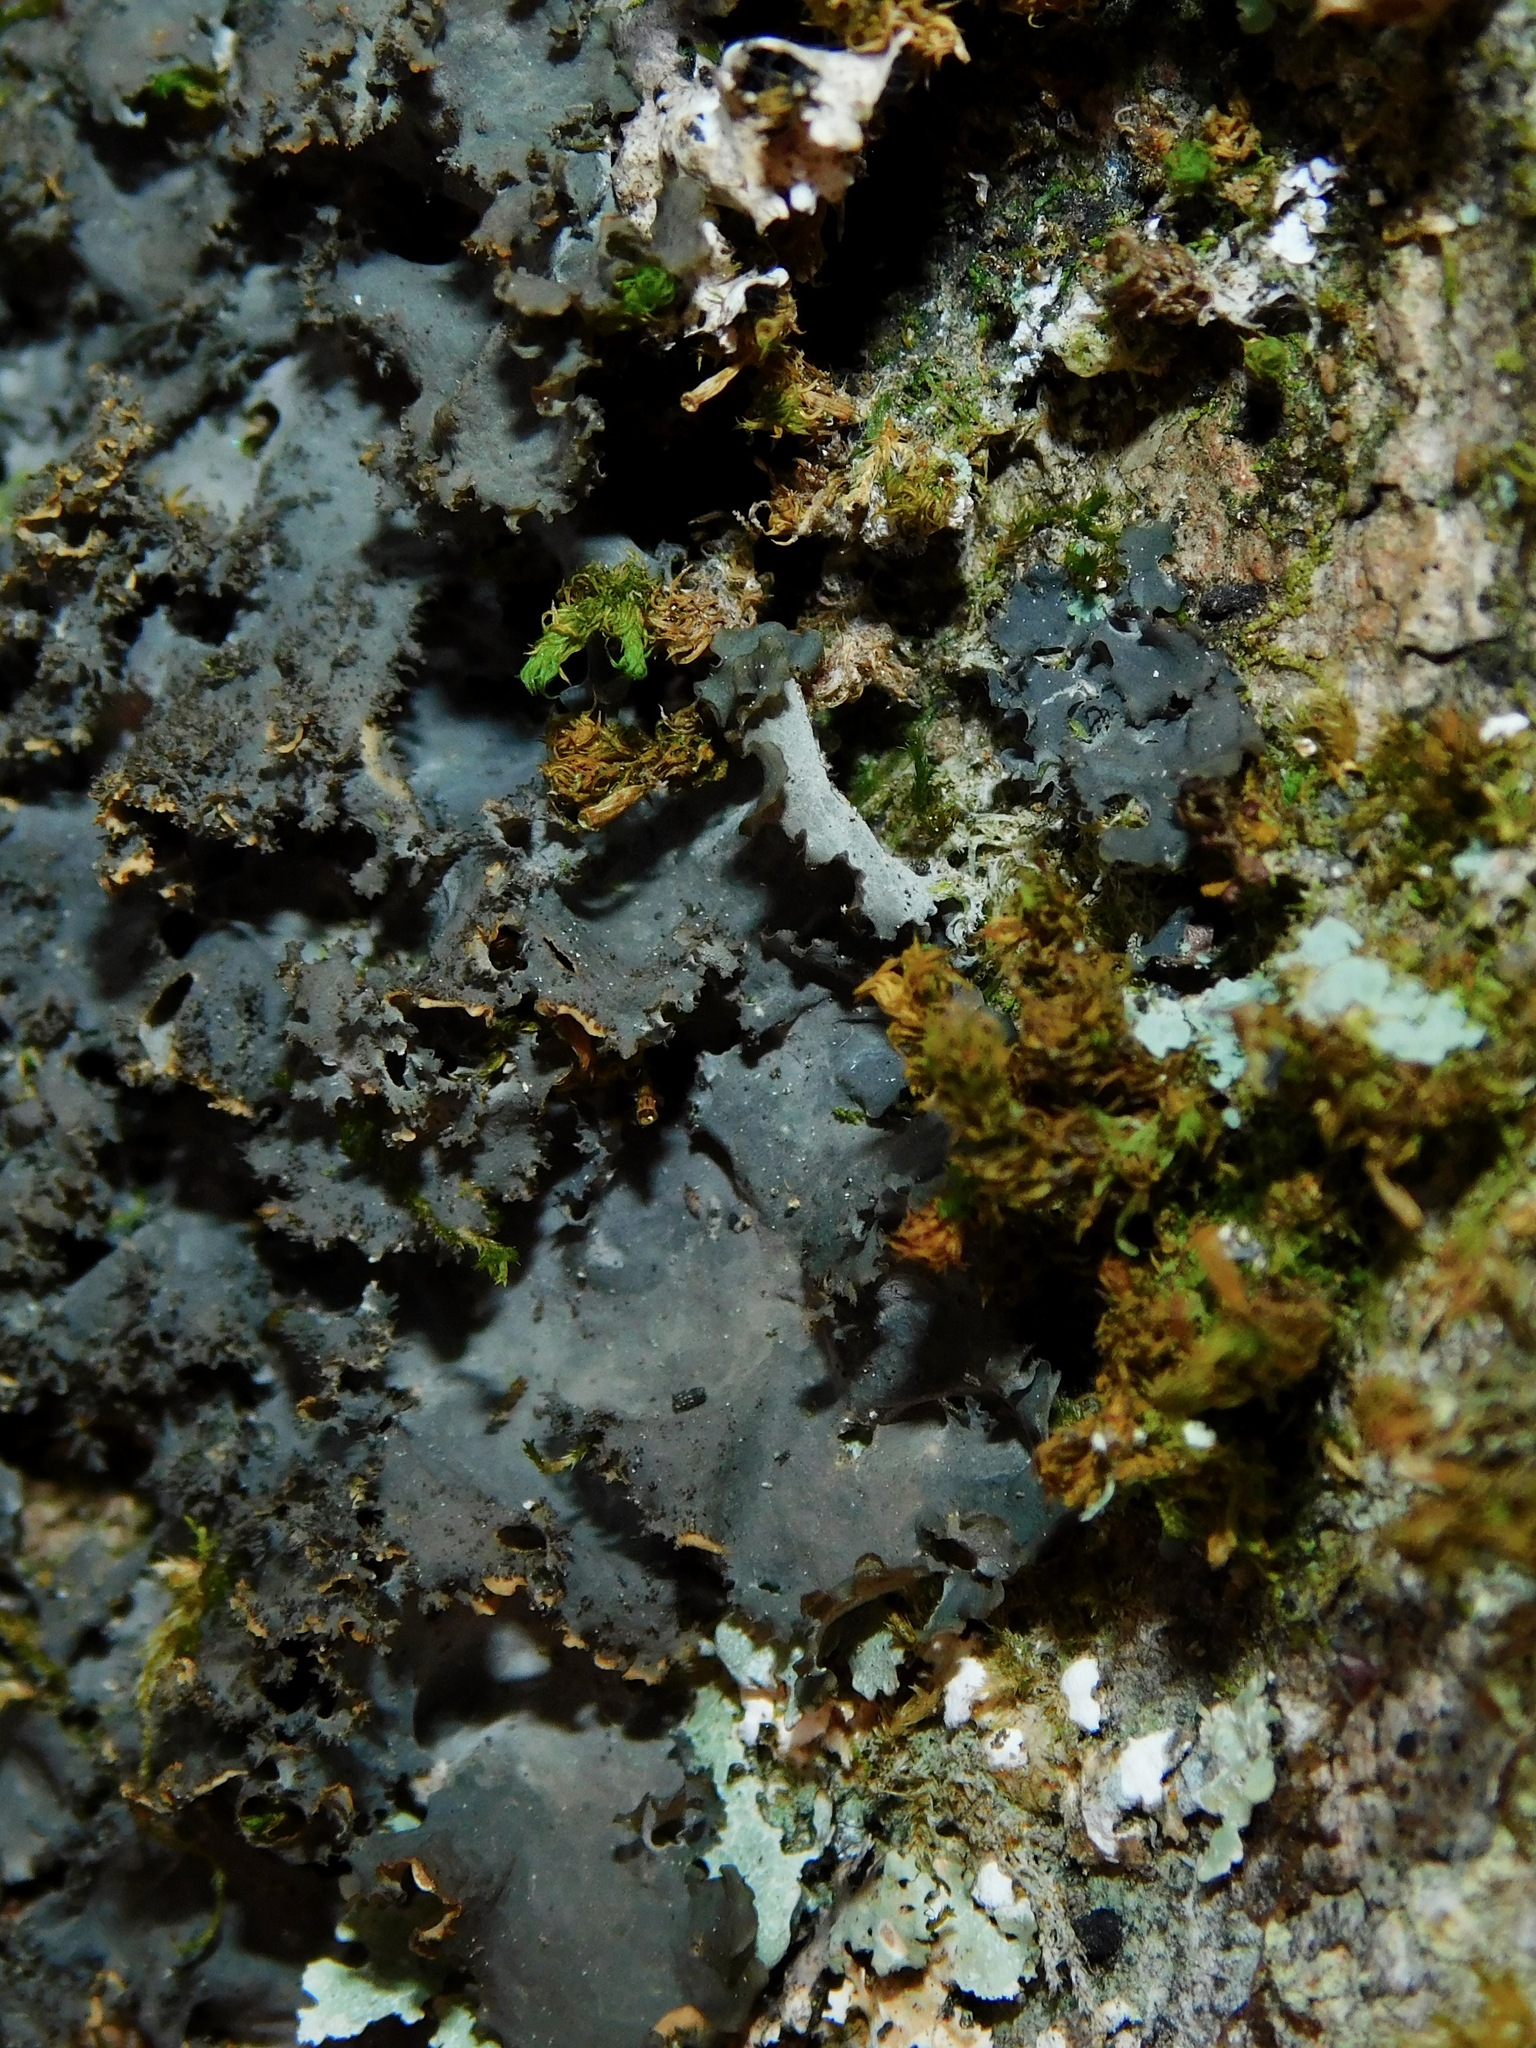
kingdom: Fungi
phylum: Ascomycota
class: Lecanoromycetes
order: Peltigerales
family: Lobariaceae
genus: Sticta
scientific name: Sticta carolinensis
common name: Carolina moon lichen
